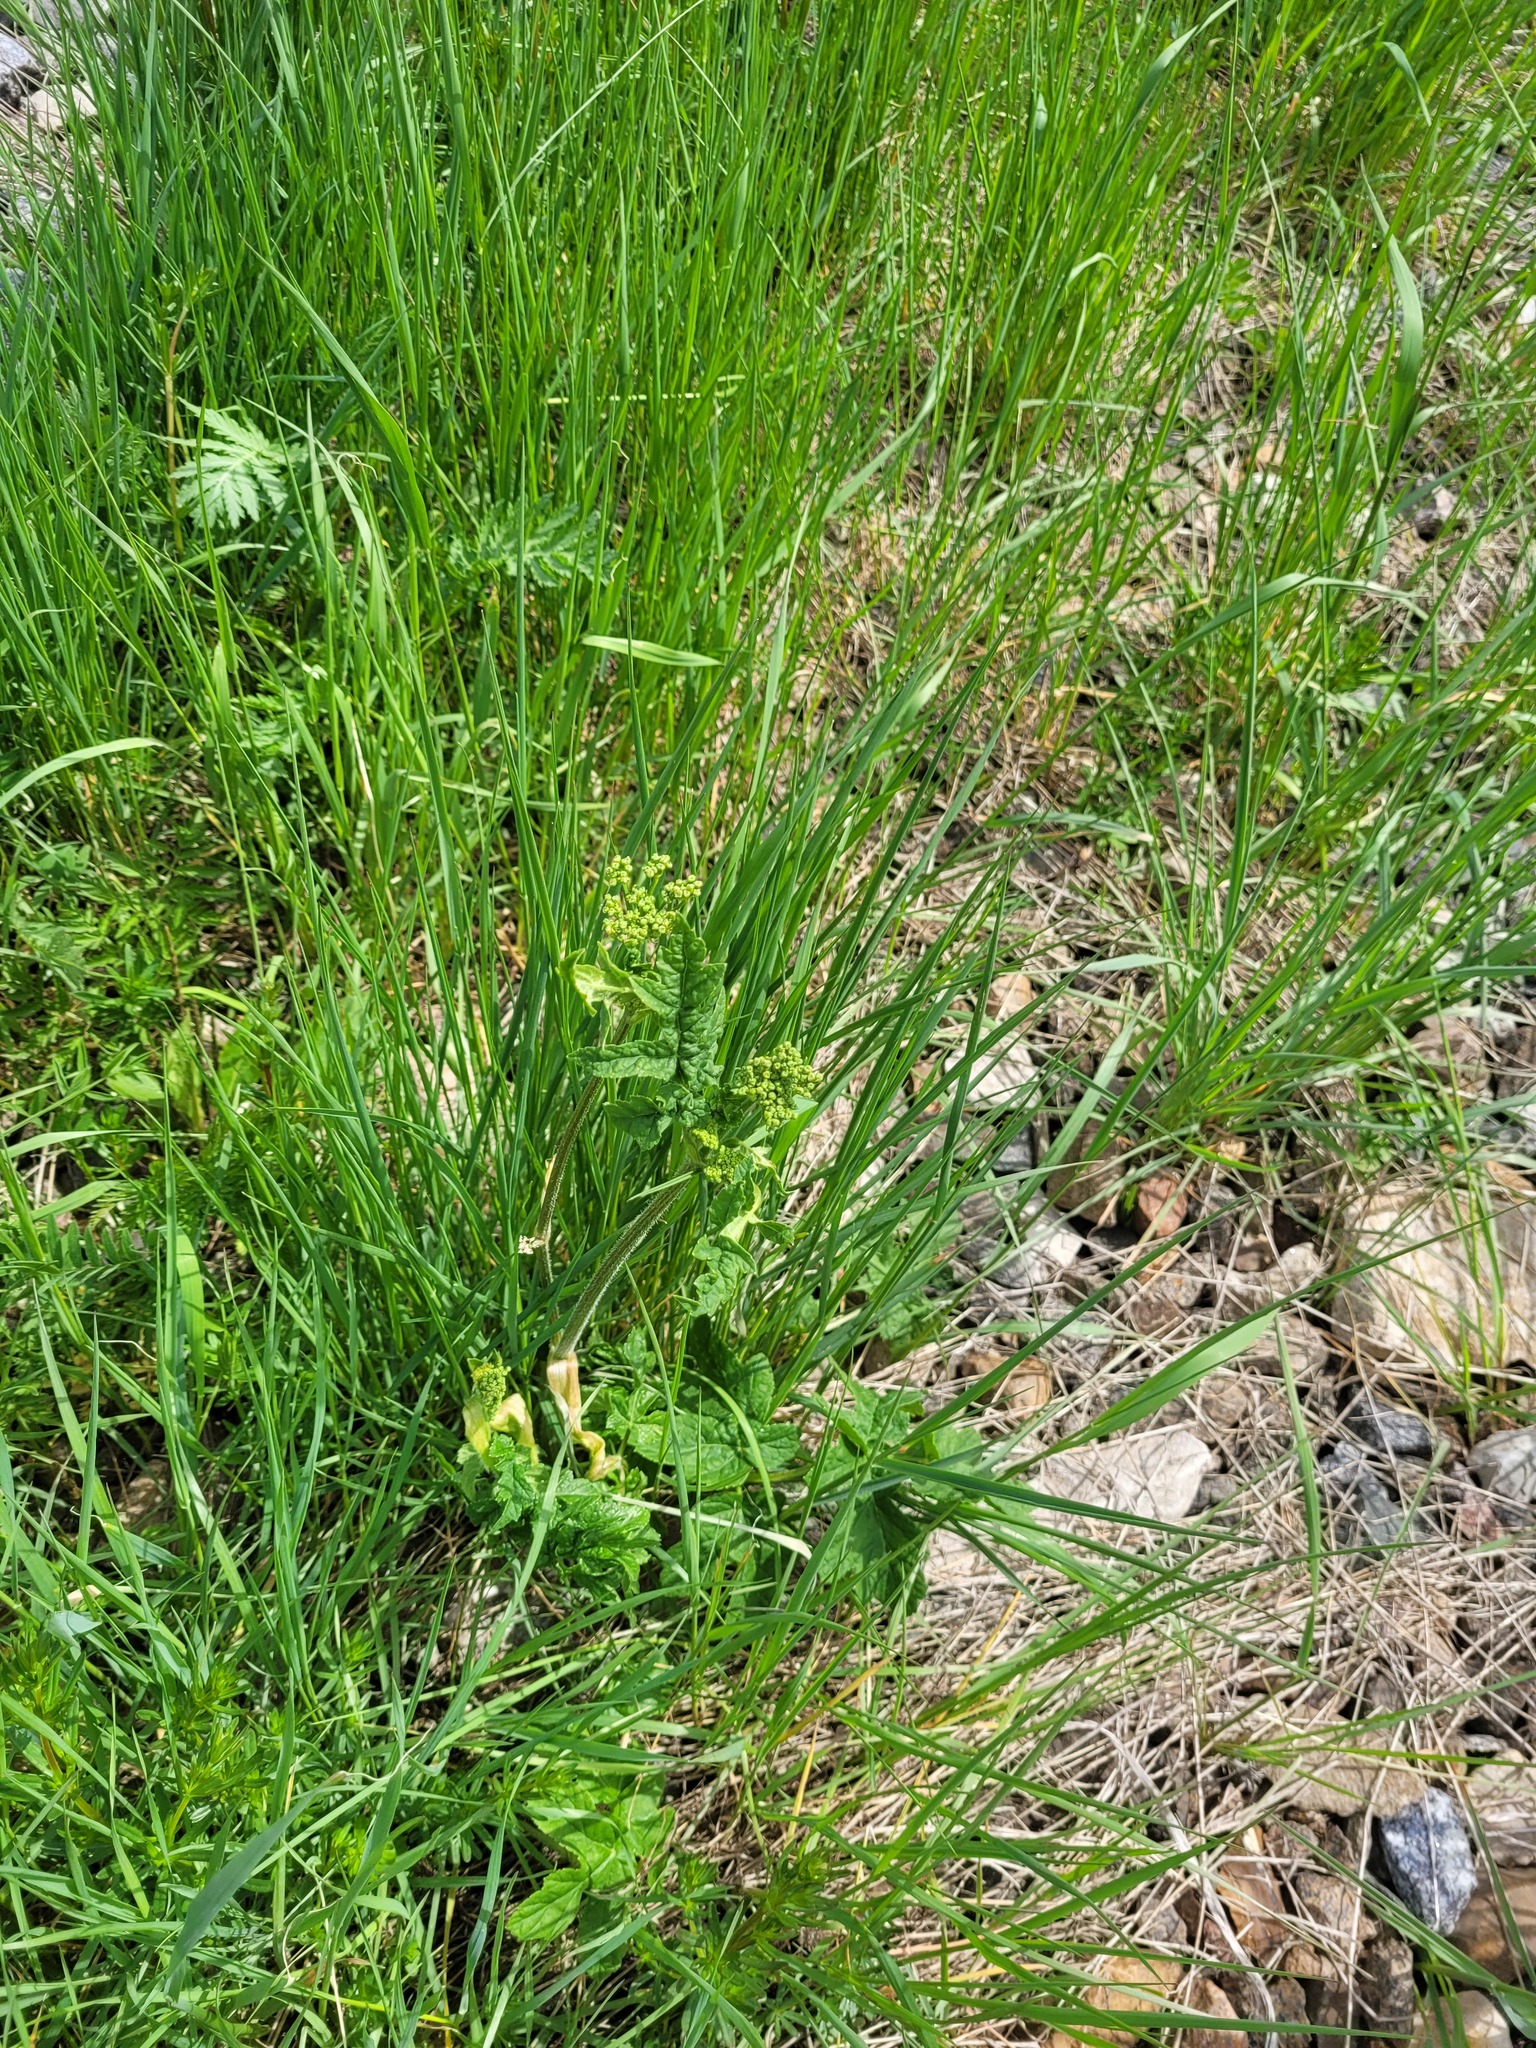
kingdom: Plantae
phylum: Tracheophyta
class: Magnoliopsida
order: Apiales
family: Apiaceae
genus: Heracleum
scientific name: Heracleum sphondylium
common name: Hogweed
